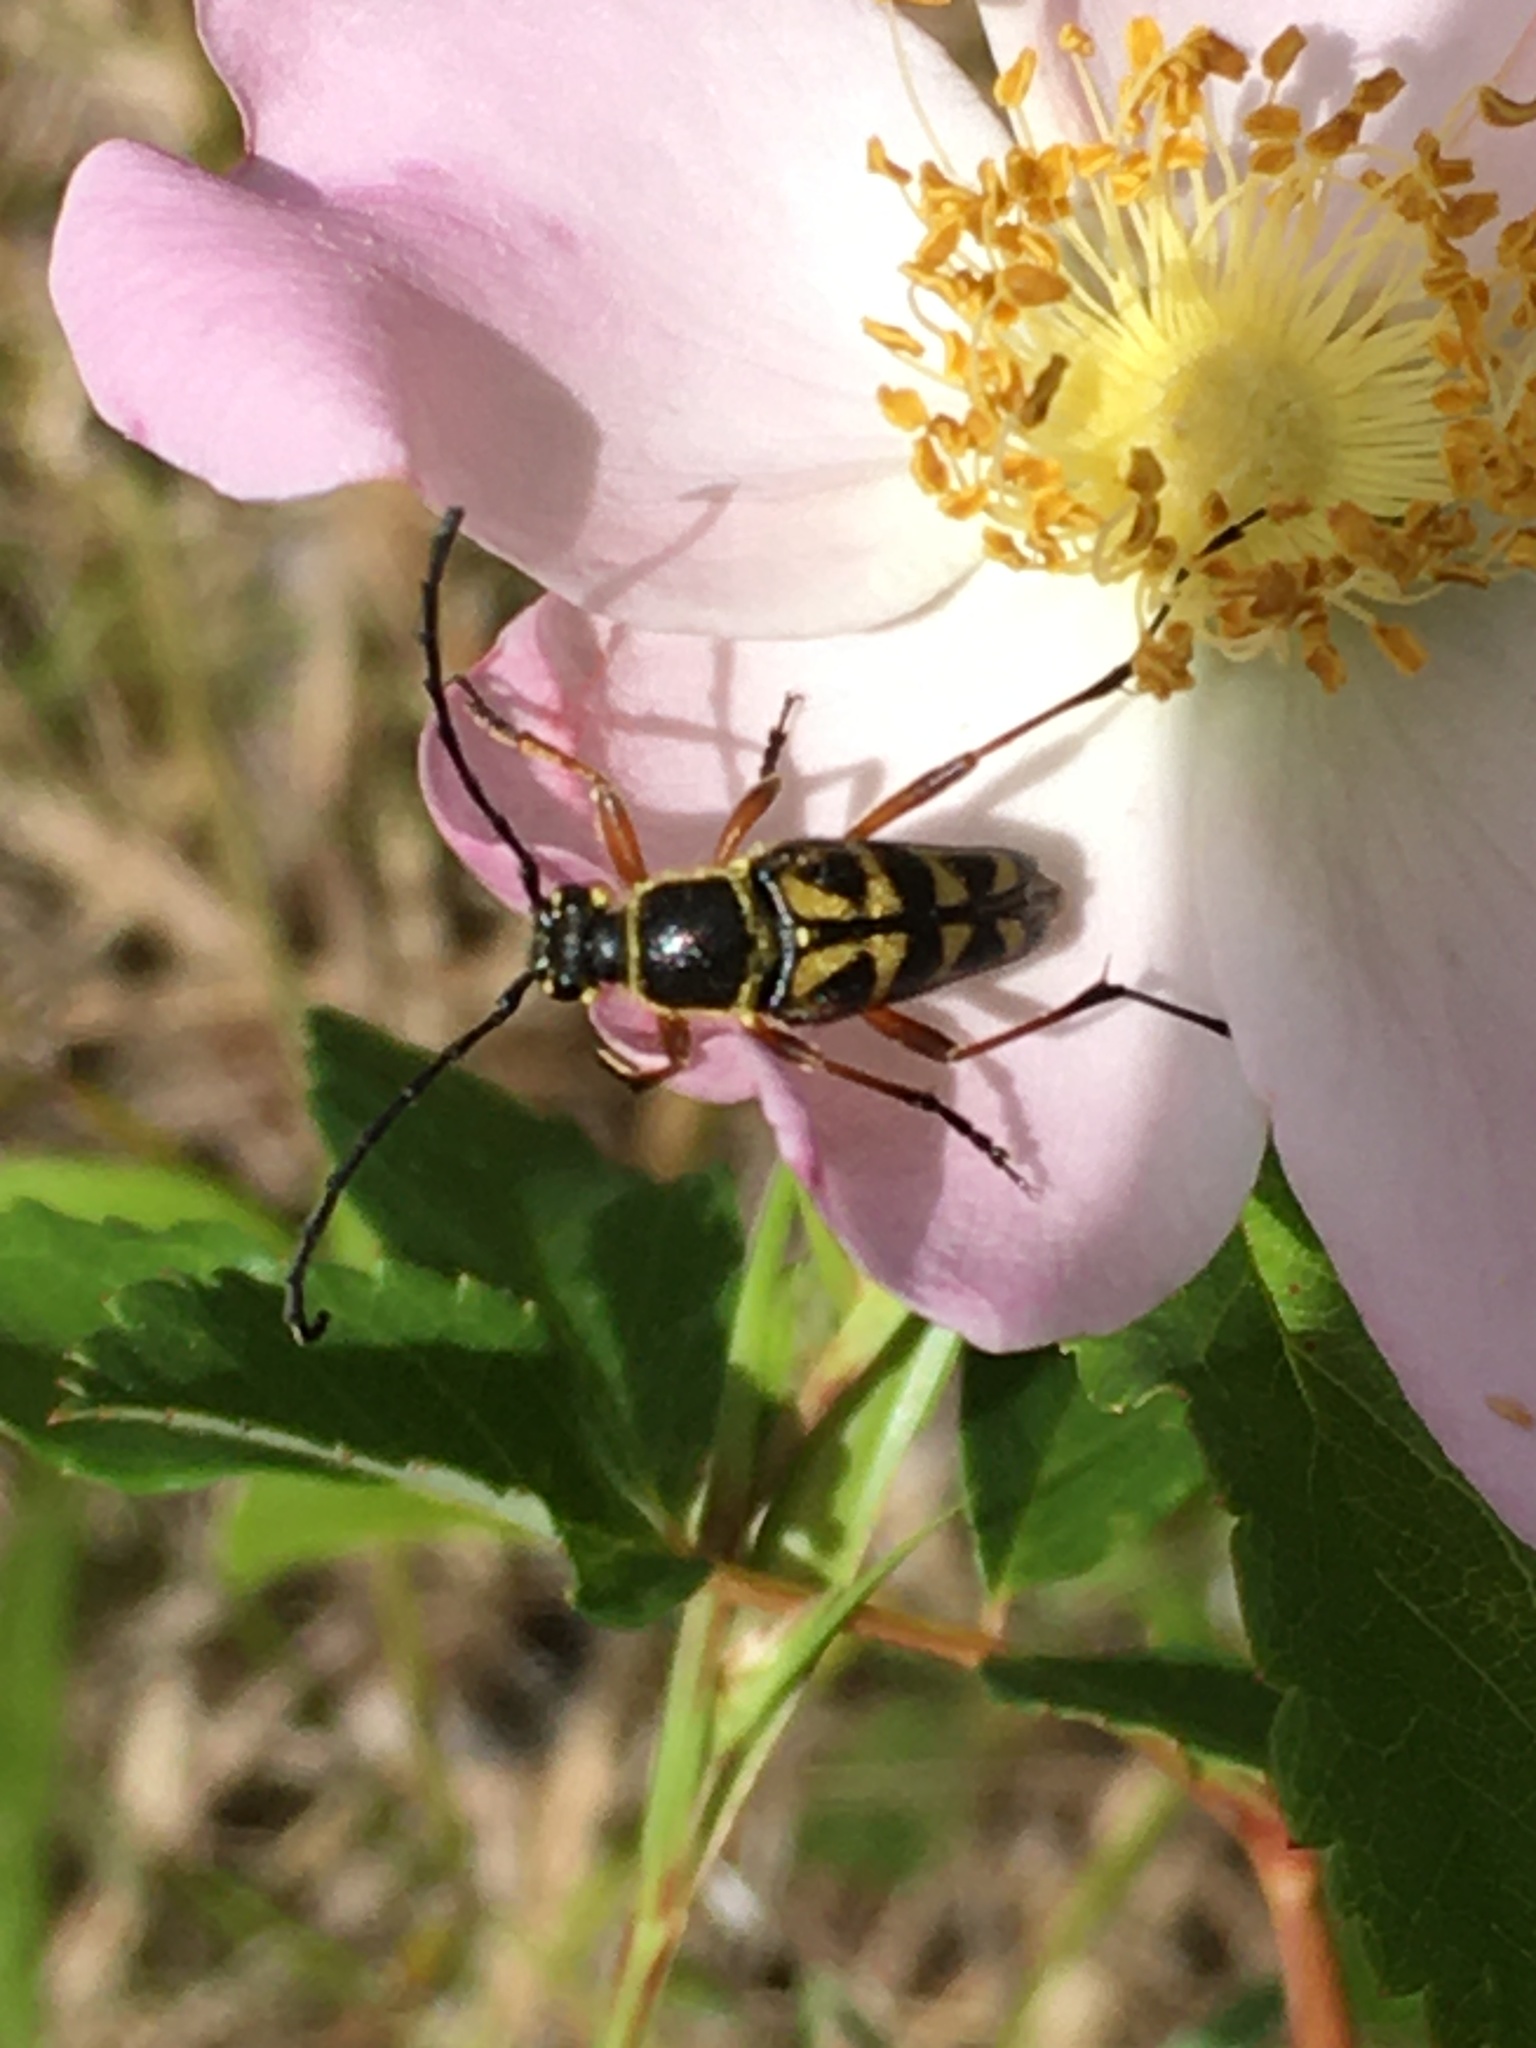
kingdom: Animalia
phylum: Arthropoda
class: Insecta
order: Coleoptera
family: Cerambycidae
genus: Typocerus
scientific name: Typocerus zebra
